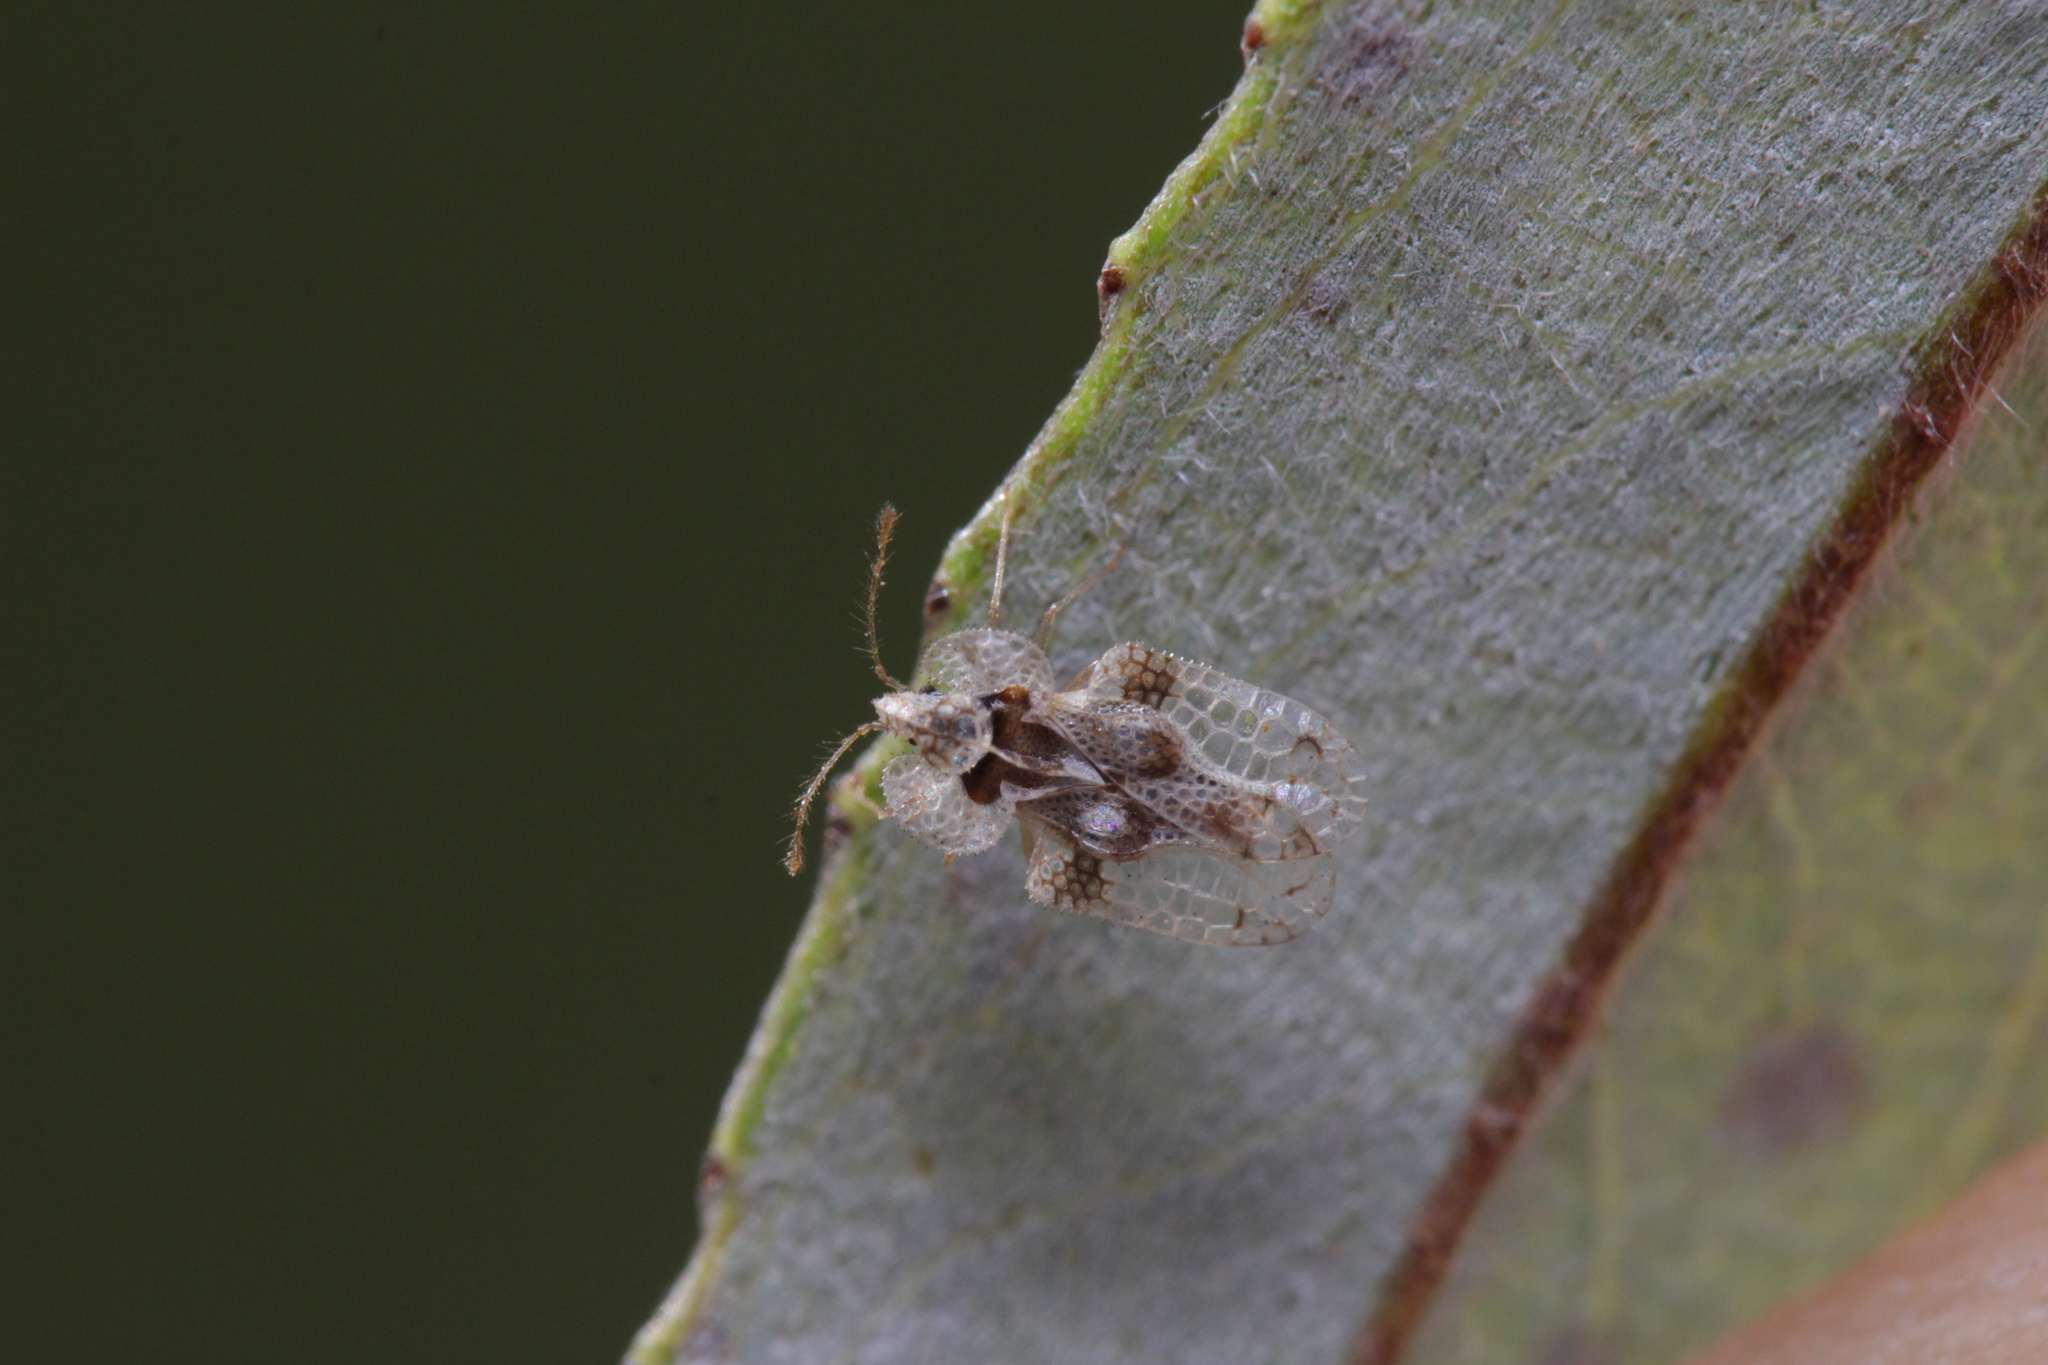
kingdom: Animalia
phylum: Arthropoda
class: Insecta
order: Hemiptera
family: Tingidae
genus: Corythucha
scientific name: Corythucha arcuata
